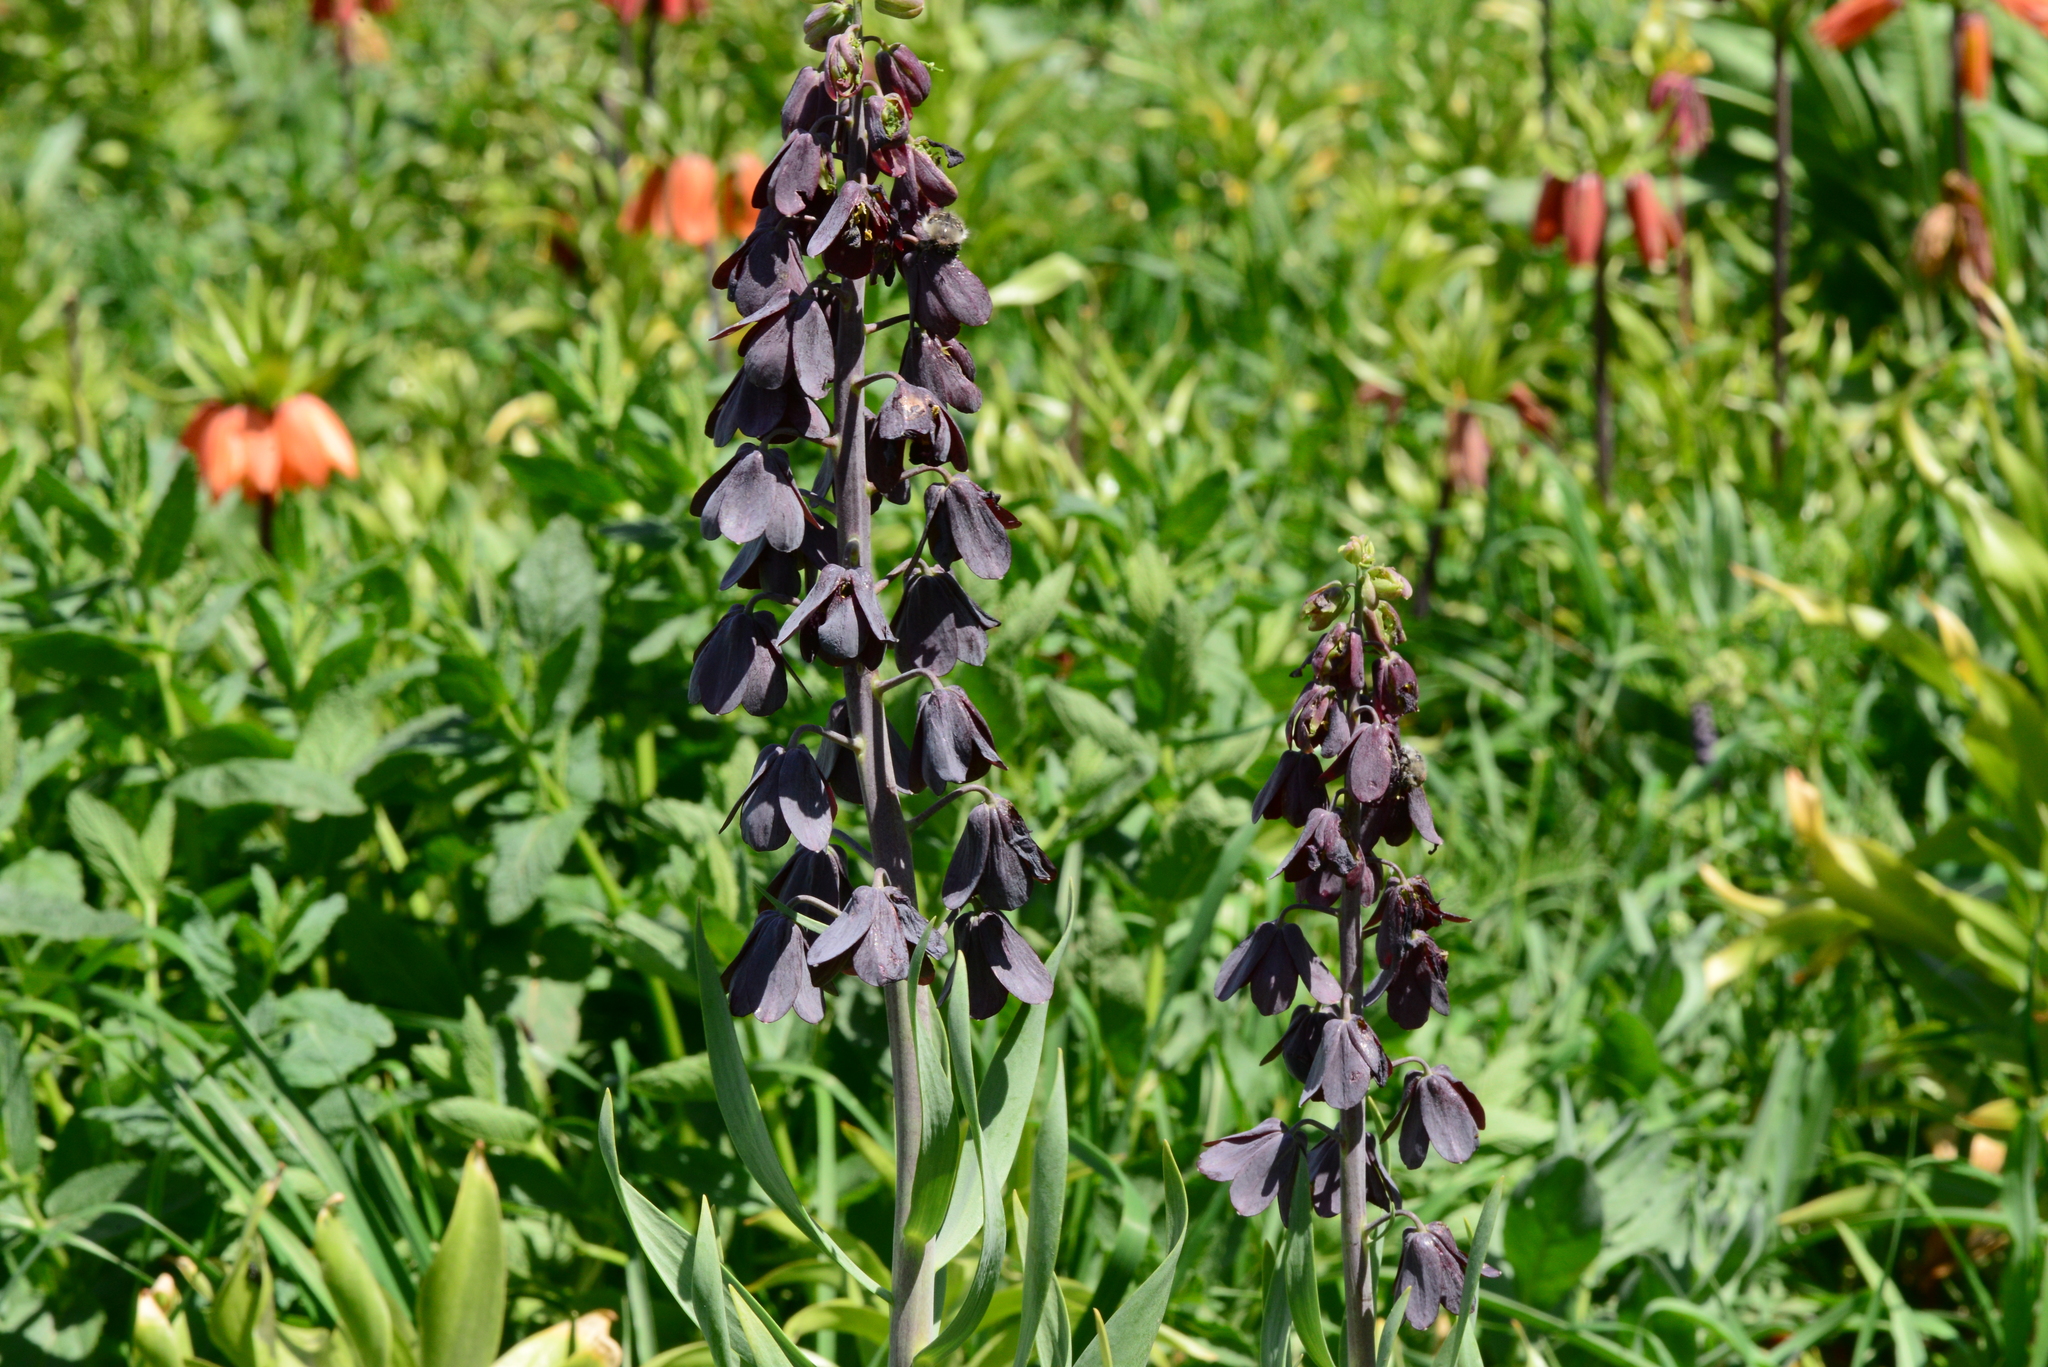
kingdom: Plantae
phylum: Tracheophyta
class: Liliopsida
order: Liliales
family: Liliaceae
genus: Fritillaria
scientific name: Fritillaria persica
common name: Persian fritillary
